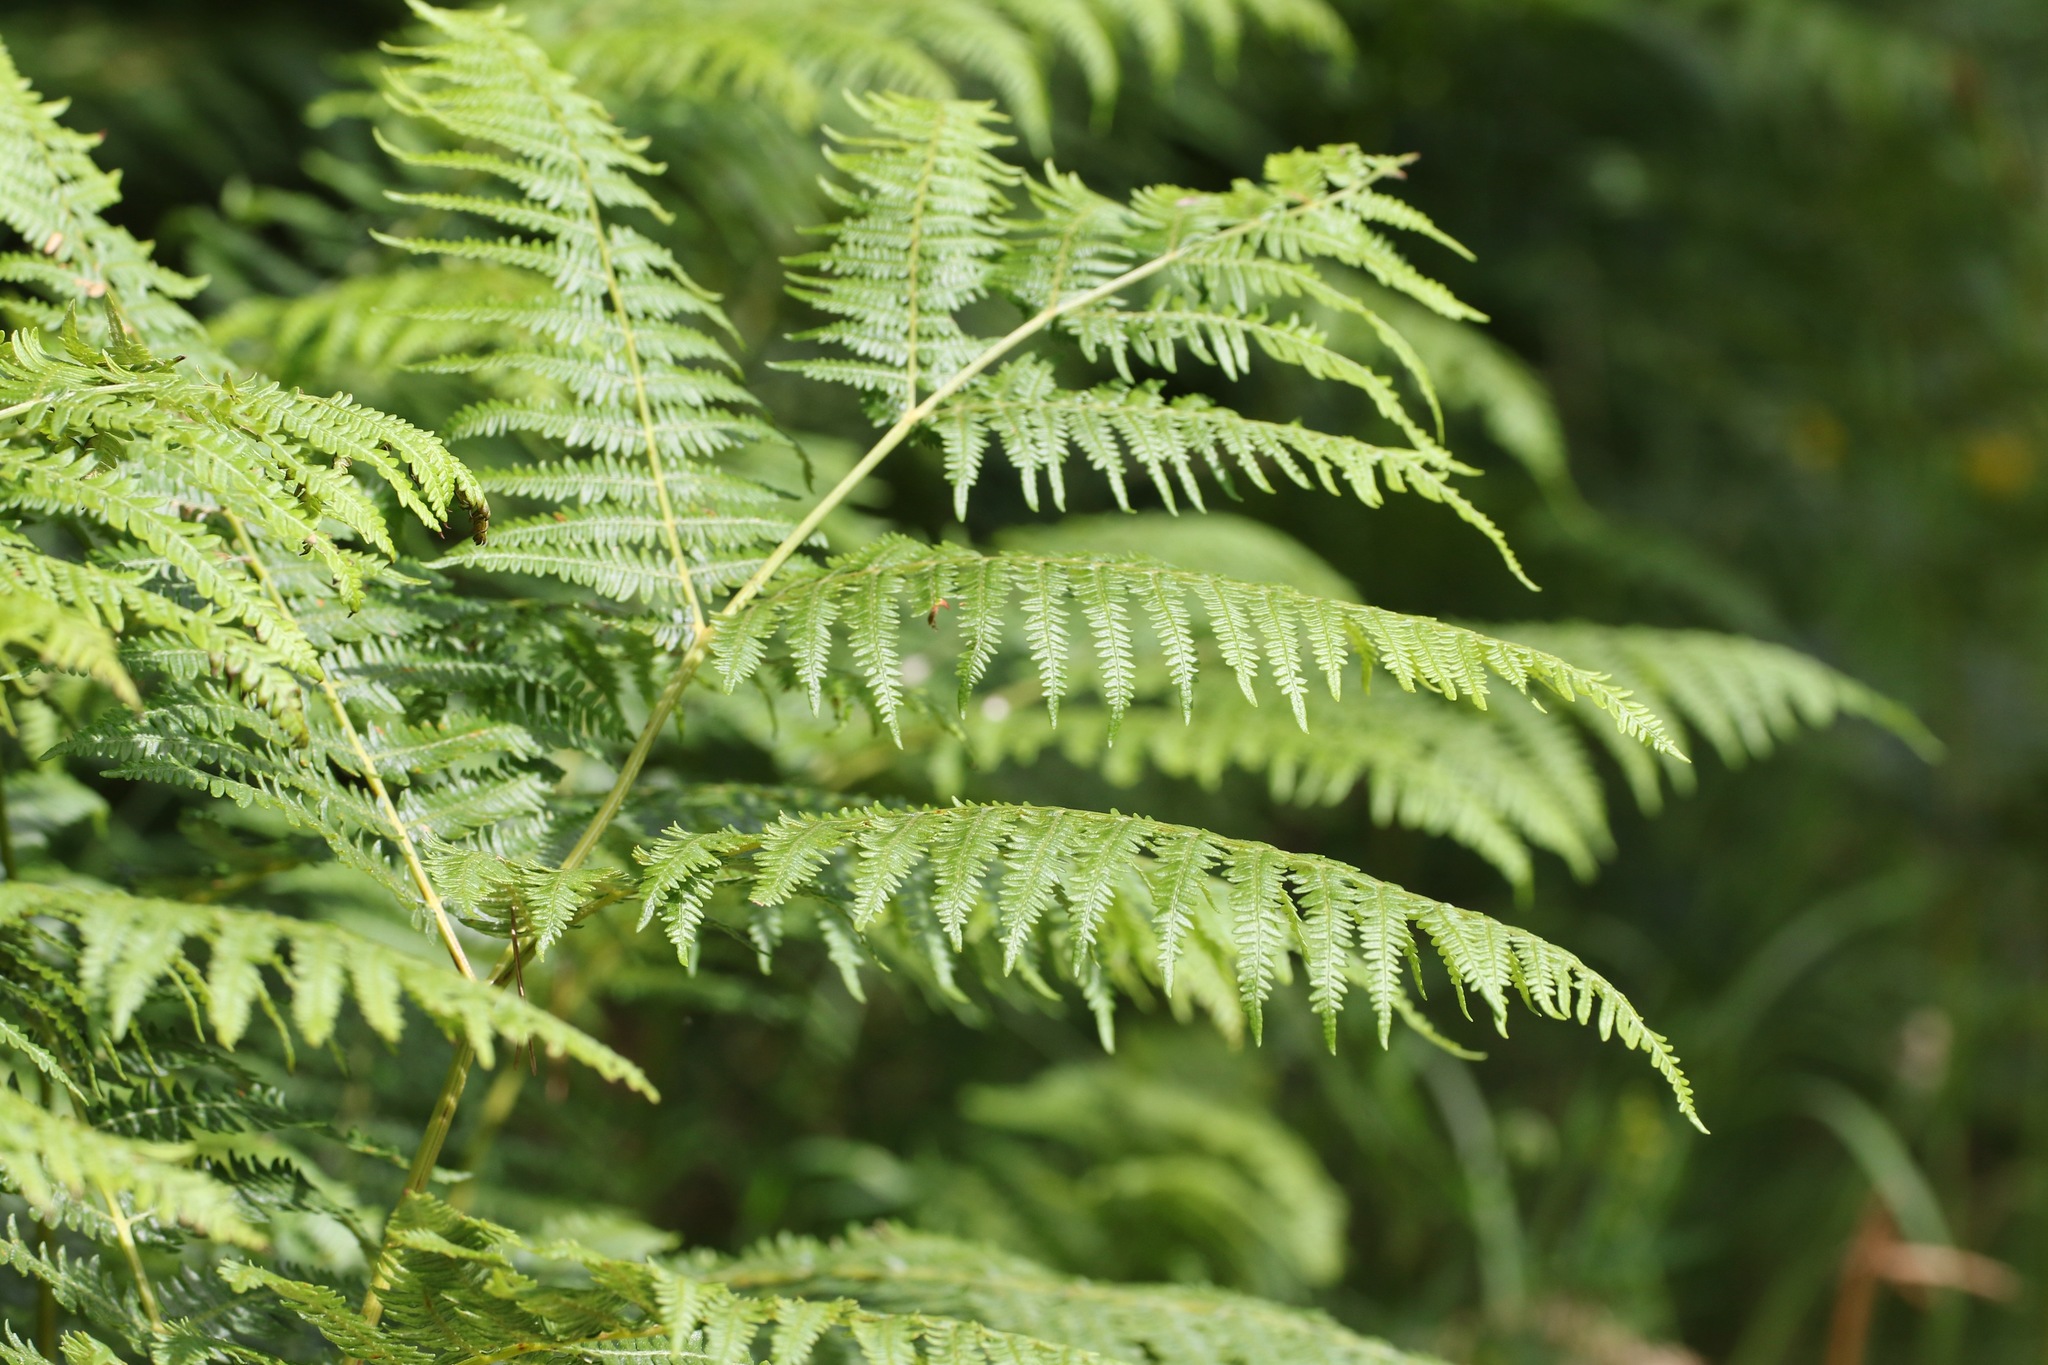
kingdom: Plantae
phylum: Tracheophyta
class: Polypodiopsida
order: Polypodiales
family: Dennstaedtiaceae
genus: Pteridium
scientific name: Pteridium aquilinum
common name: Bracken
